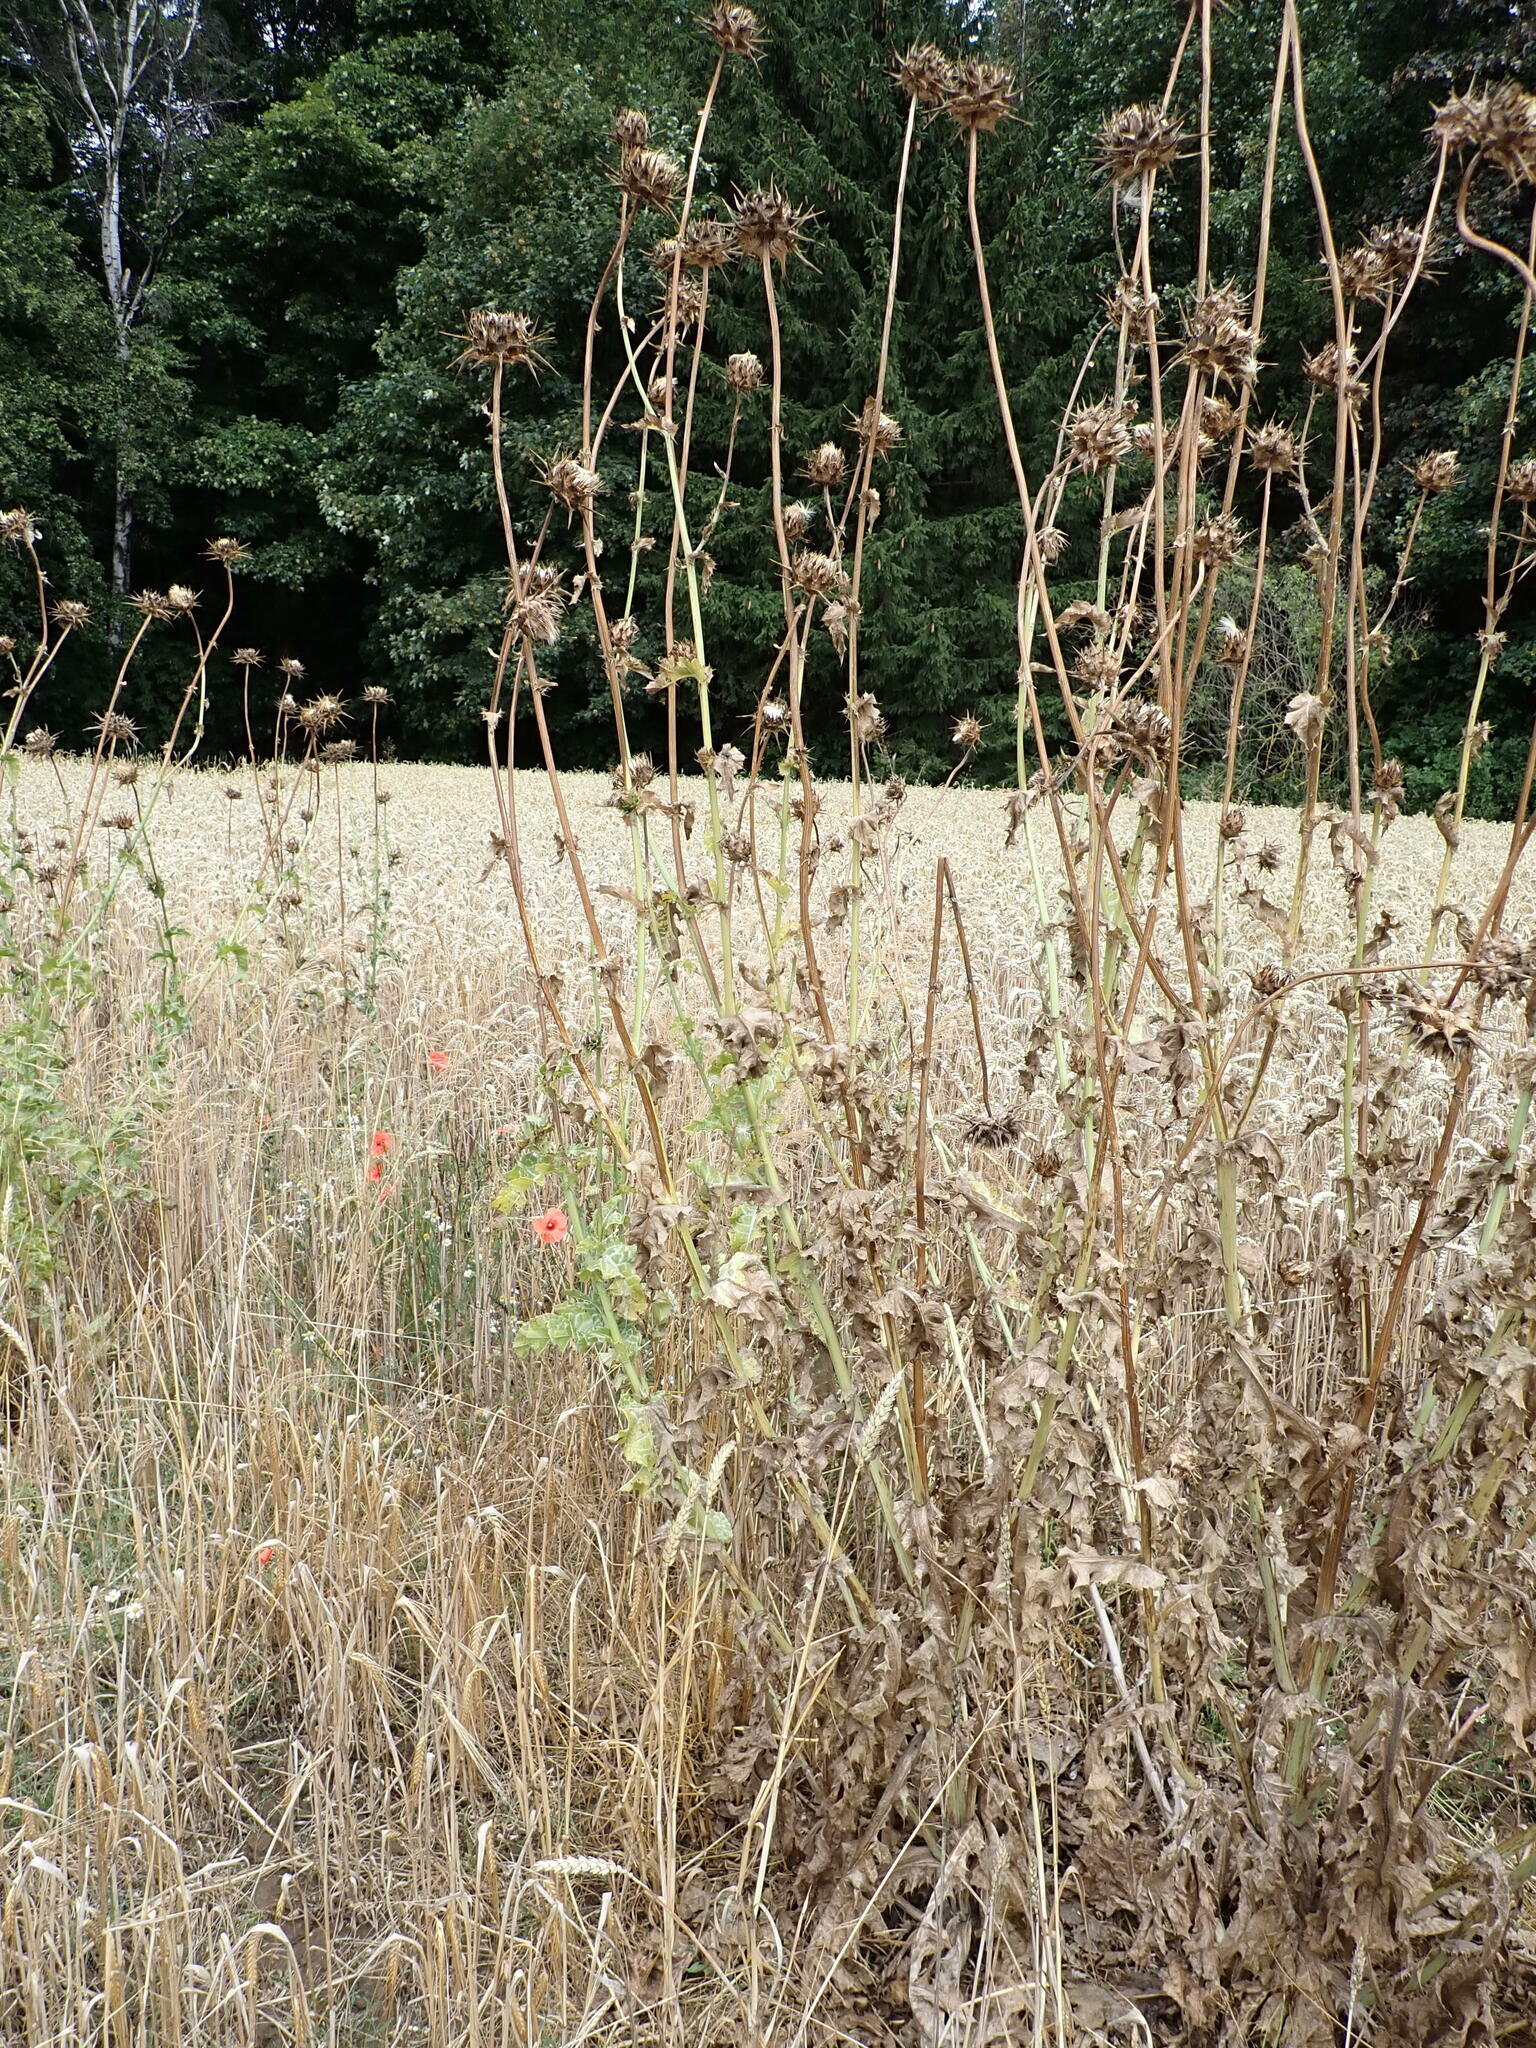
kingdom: Plantae
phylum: Tracheophyta
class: Magnoliopsida
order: Asterales
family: Asteraceae
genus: Silybum
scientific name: Silybum marianum
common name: Milk thistle
